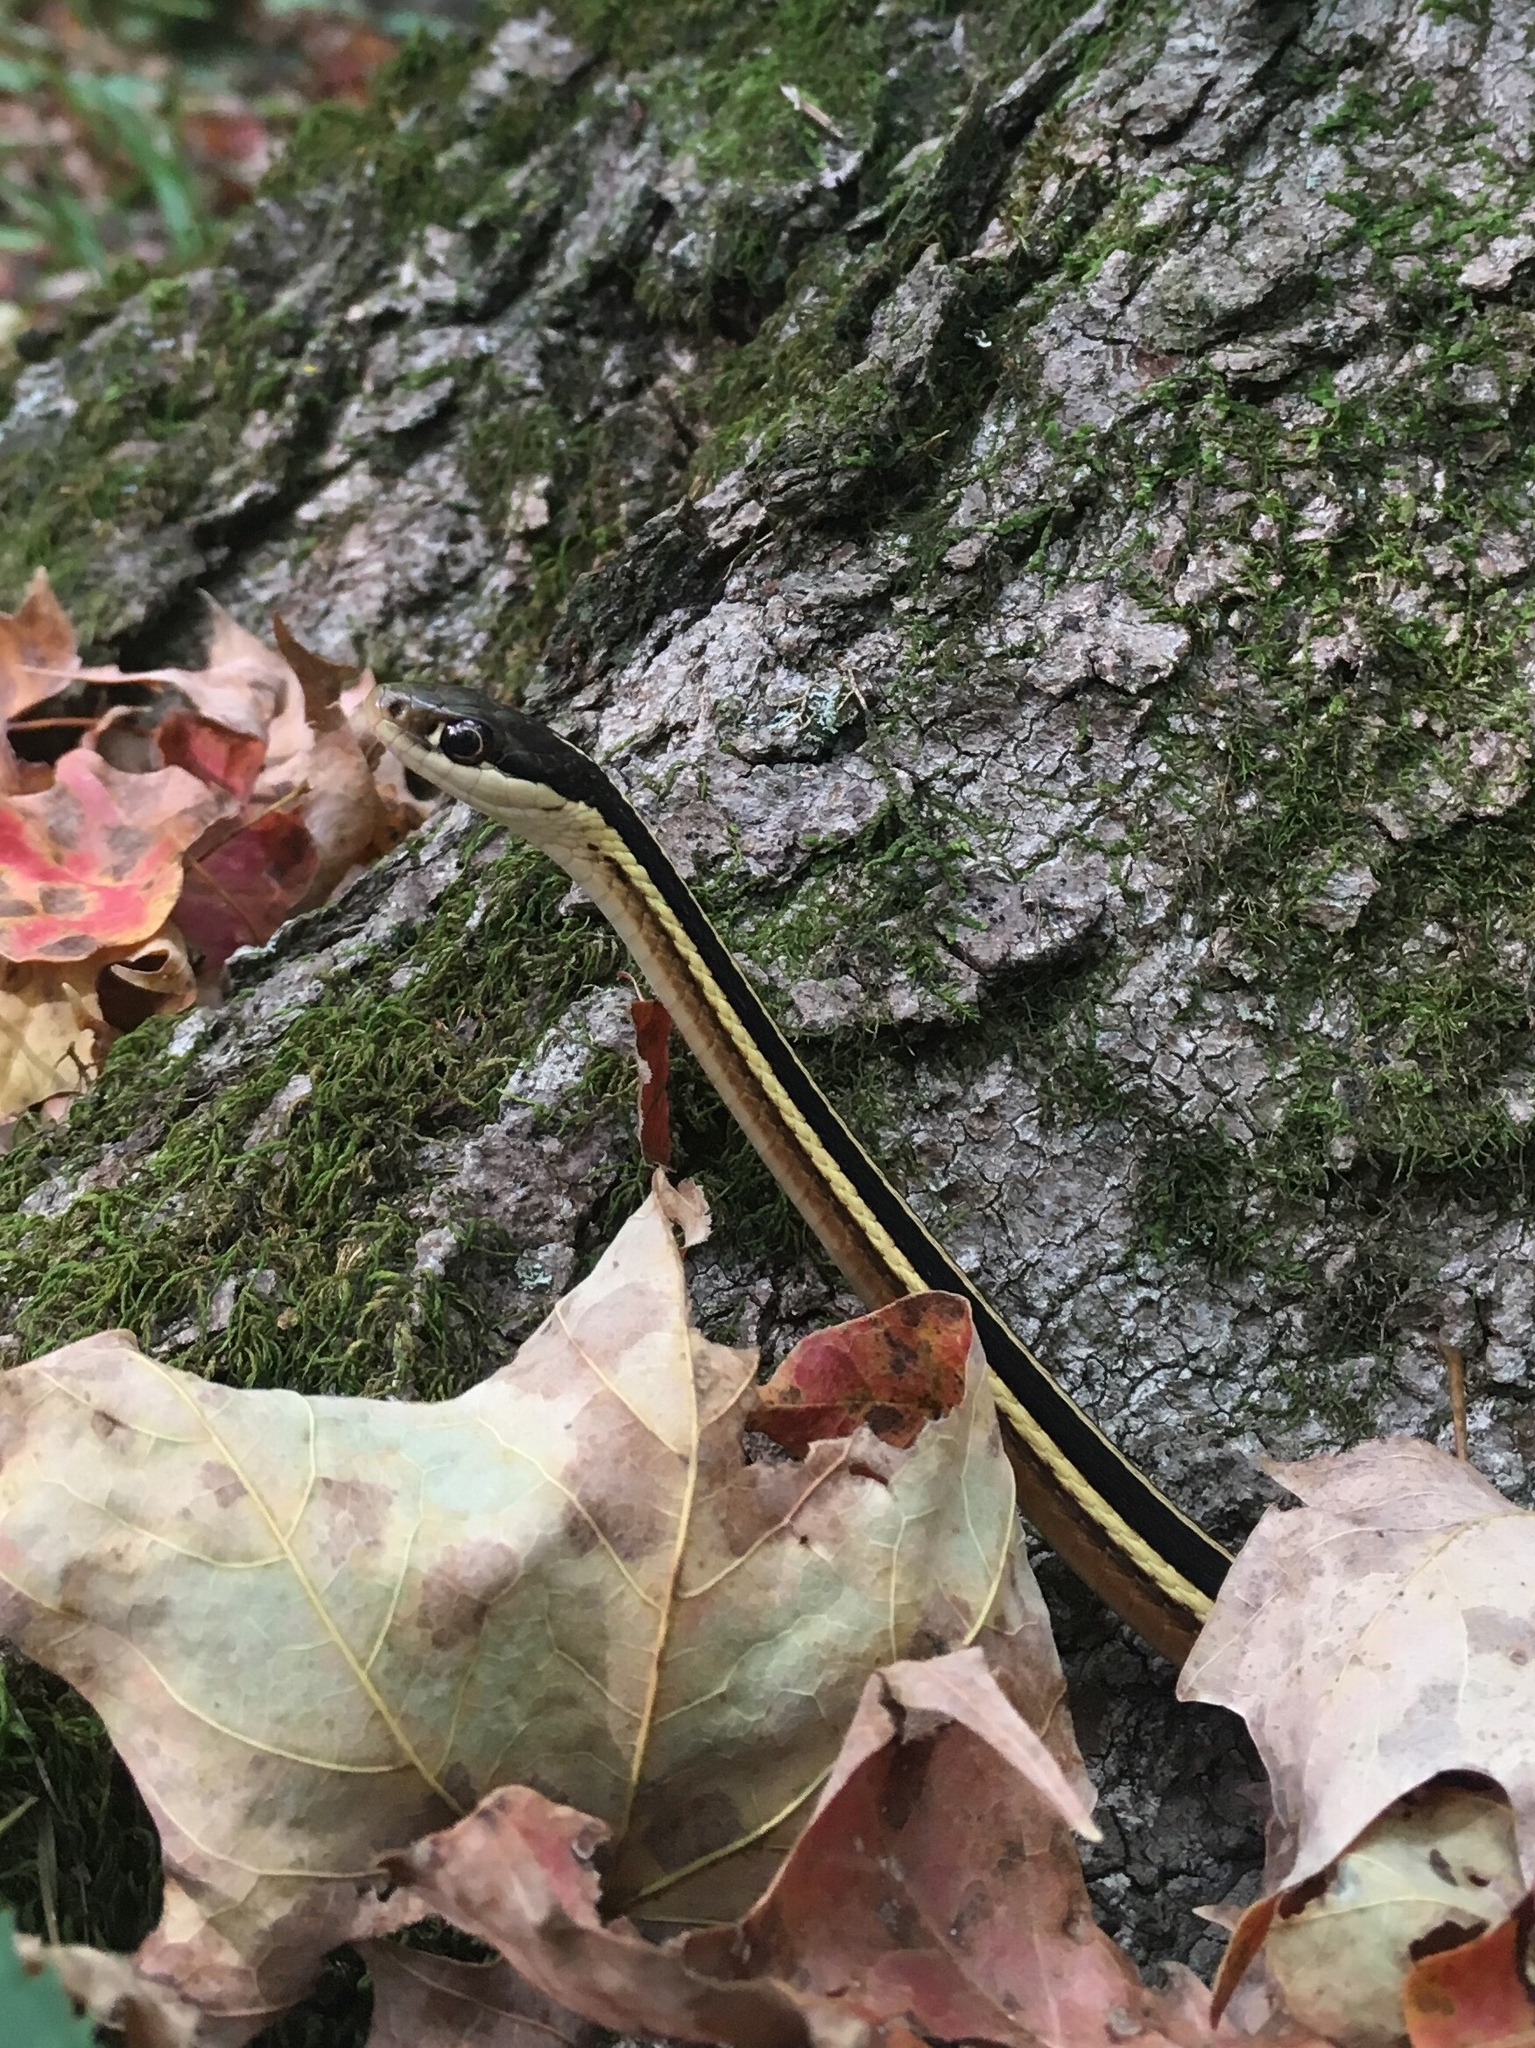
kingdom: Animalia
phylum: Chordata
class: Squamata
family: Colubridae
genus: Thamnophis
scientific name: Thamnophis saurita
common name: Eastern ribbonsnake
